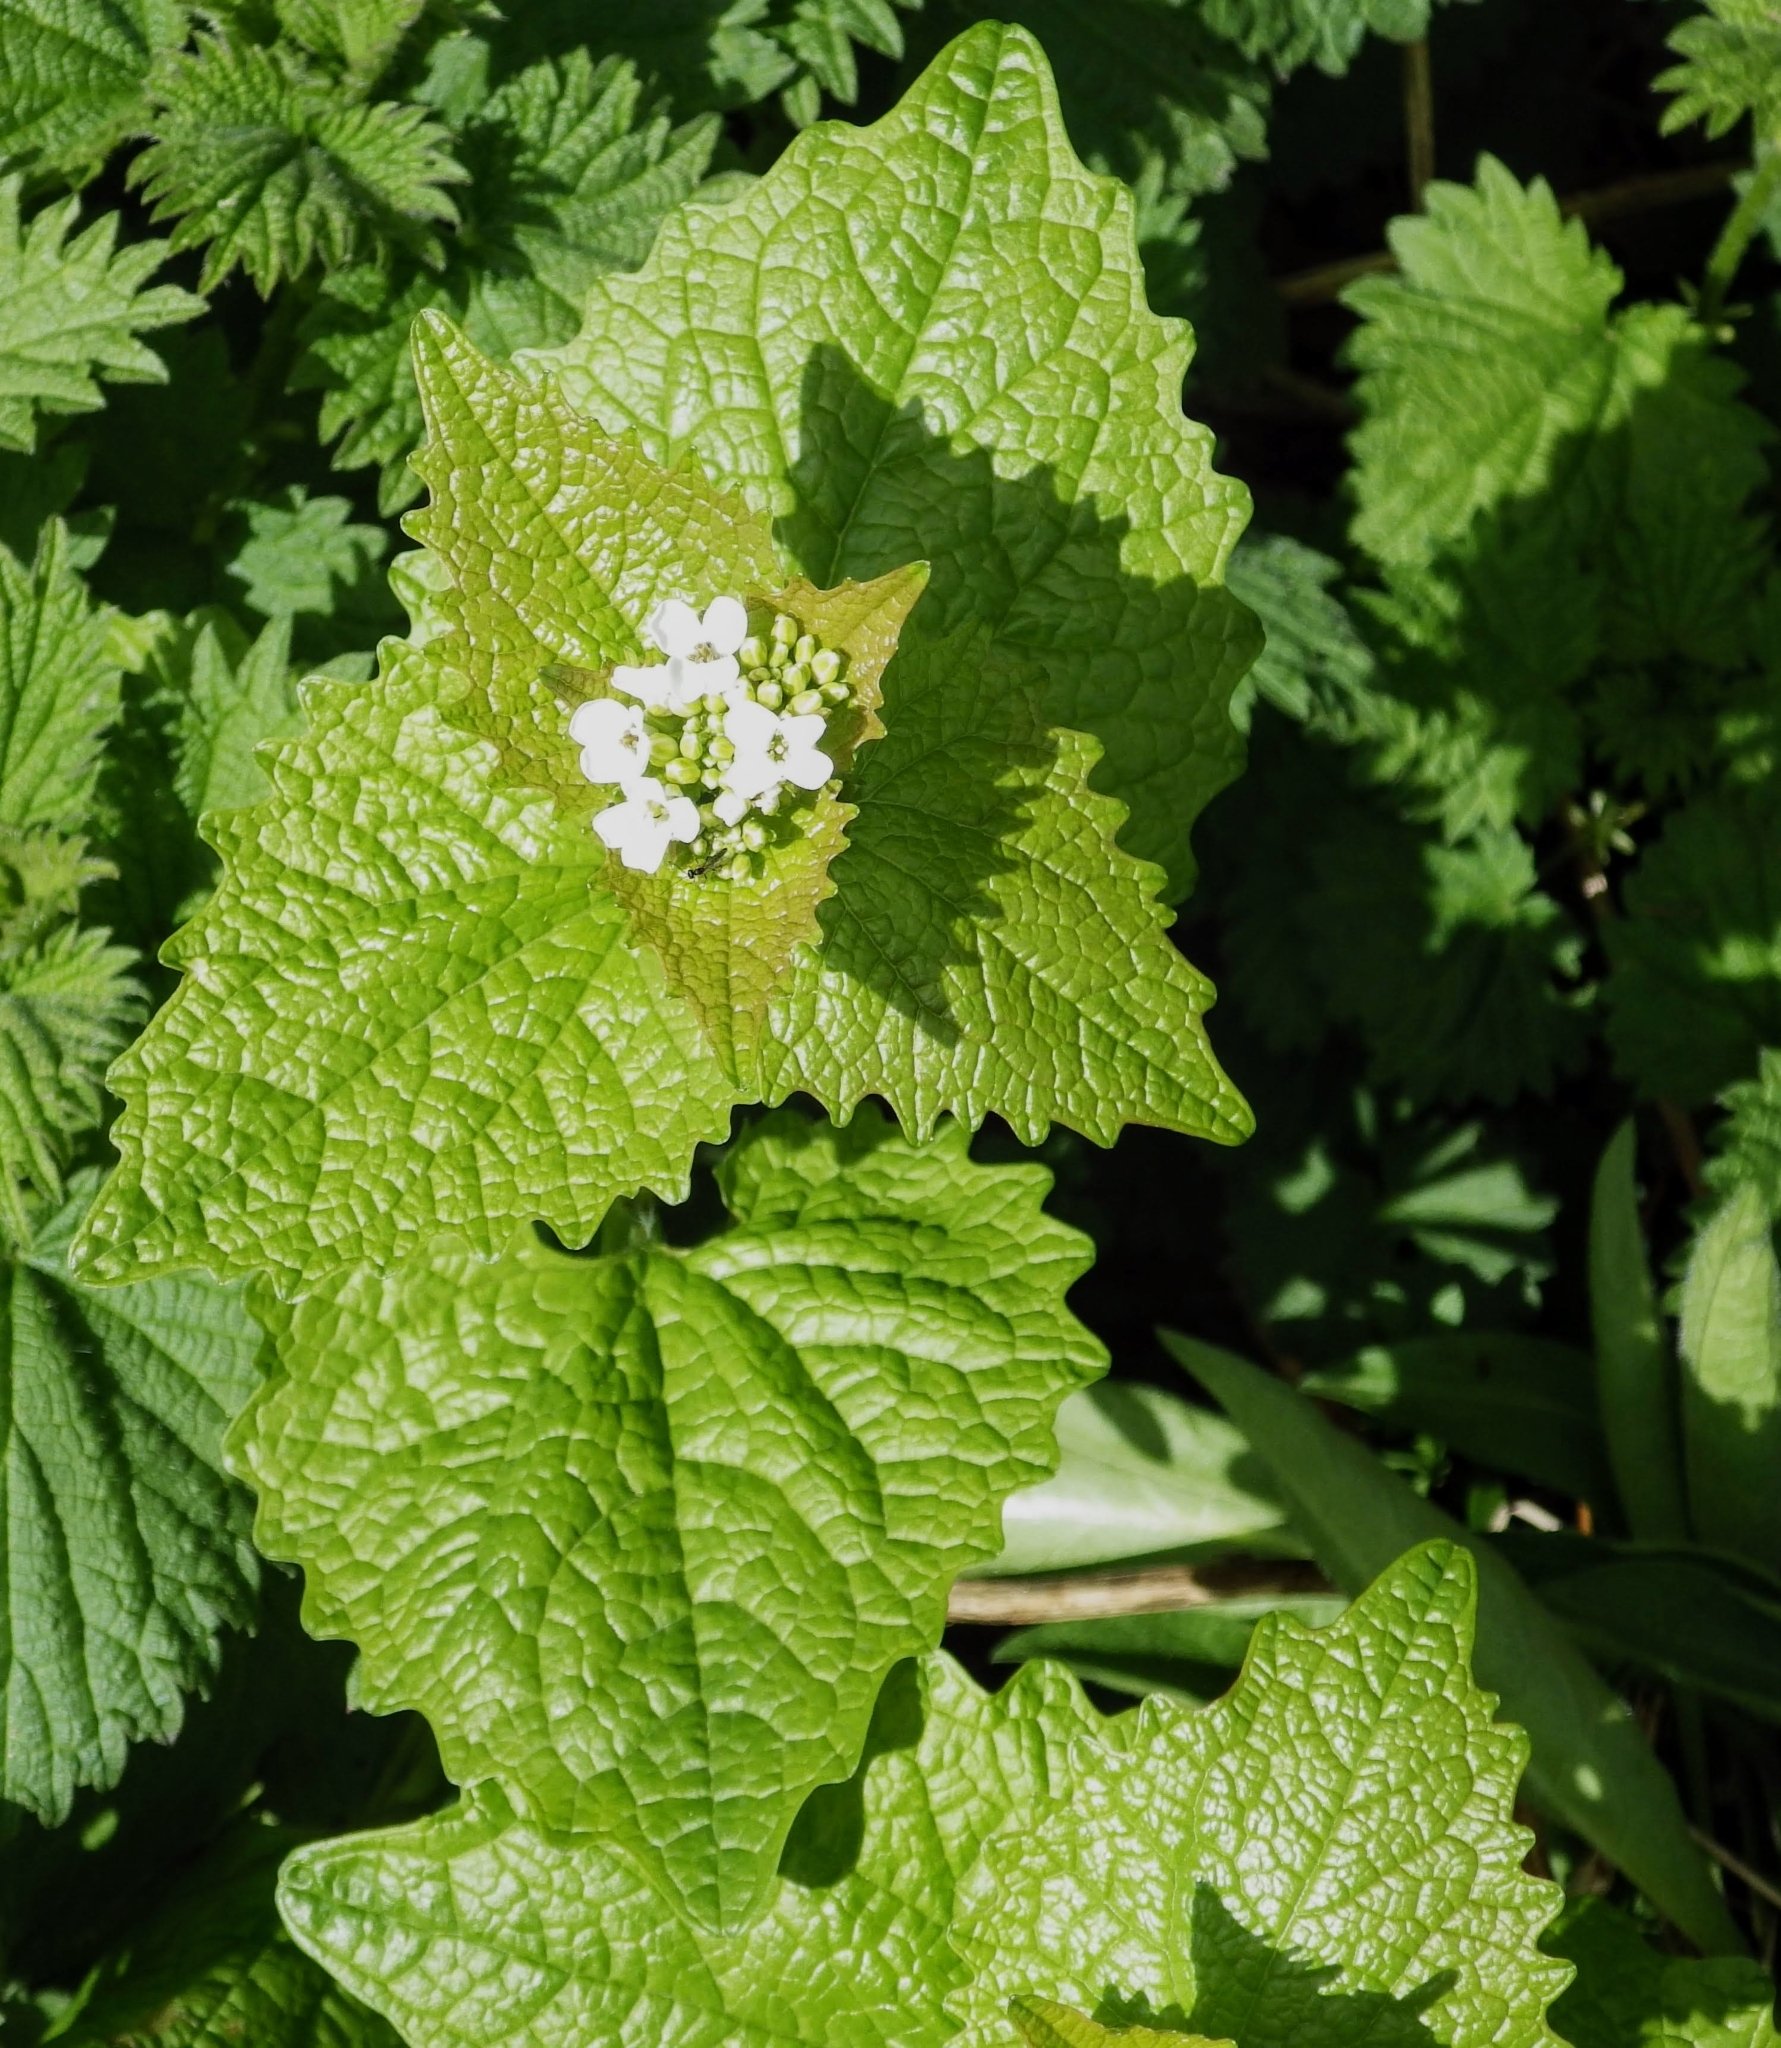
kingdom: Plantae
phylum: Tracheophyta
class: Magnoliopsida
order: Brassicales
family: Brassicaceae
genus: Alliaria
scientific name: Alliaria petiolata
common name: Garlic mustard
